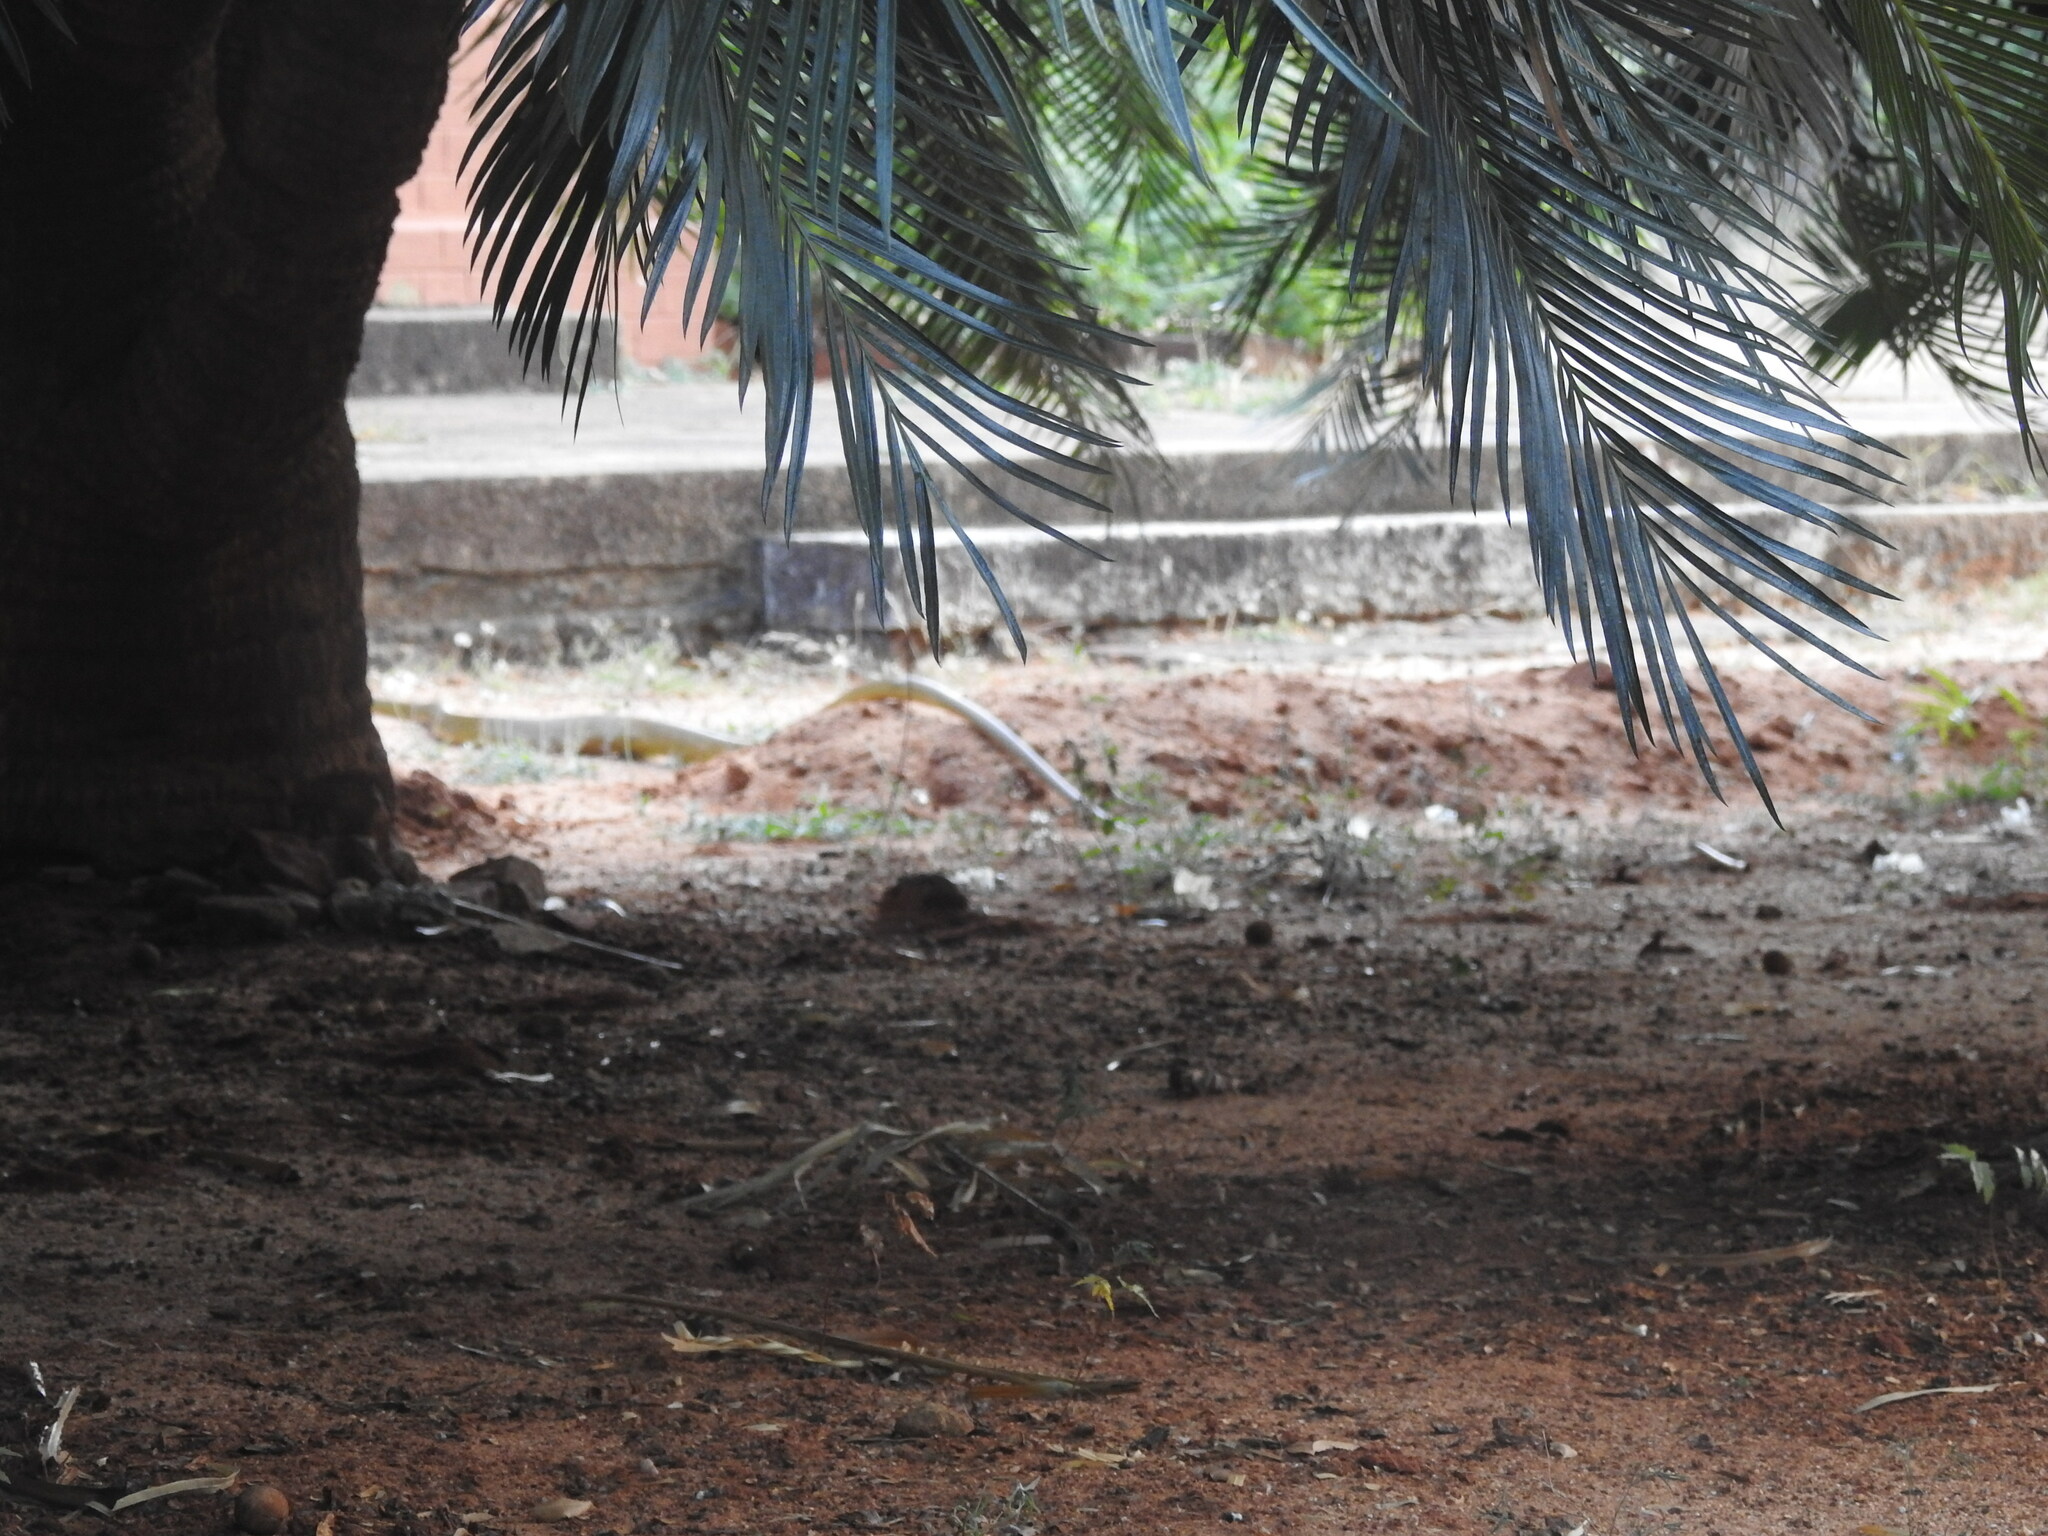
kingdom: Animalia
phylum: Chordata
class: Squamata
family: Colubridae
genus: Ptyas
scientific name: Ptyas mucosa
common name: Oriental ratsnake
